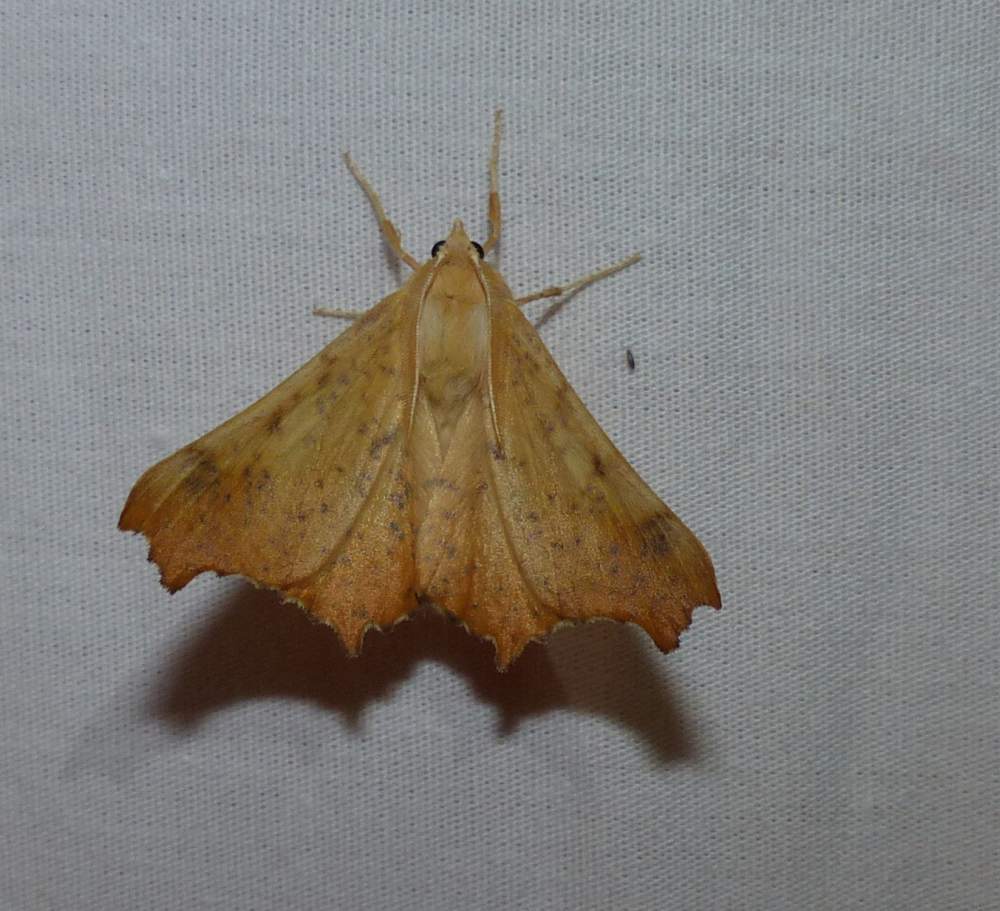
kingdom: Animalia
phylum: Arthropoda
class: Insecta
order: Lepidoptera
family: Geometridae
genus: Ennomos
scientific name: Ennomos magnaria
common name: Maple spanworm
